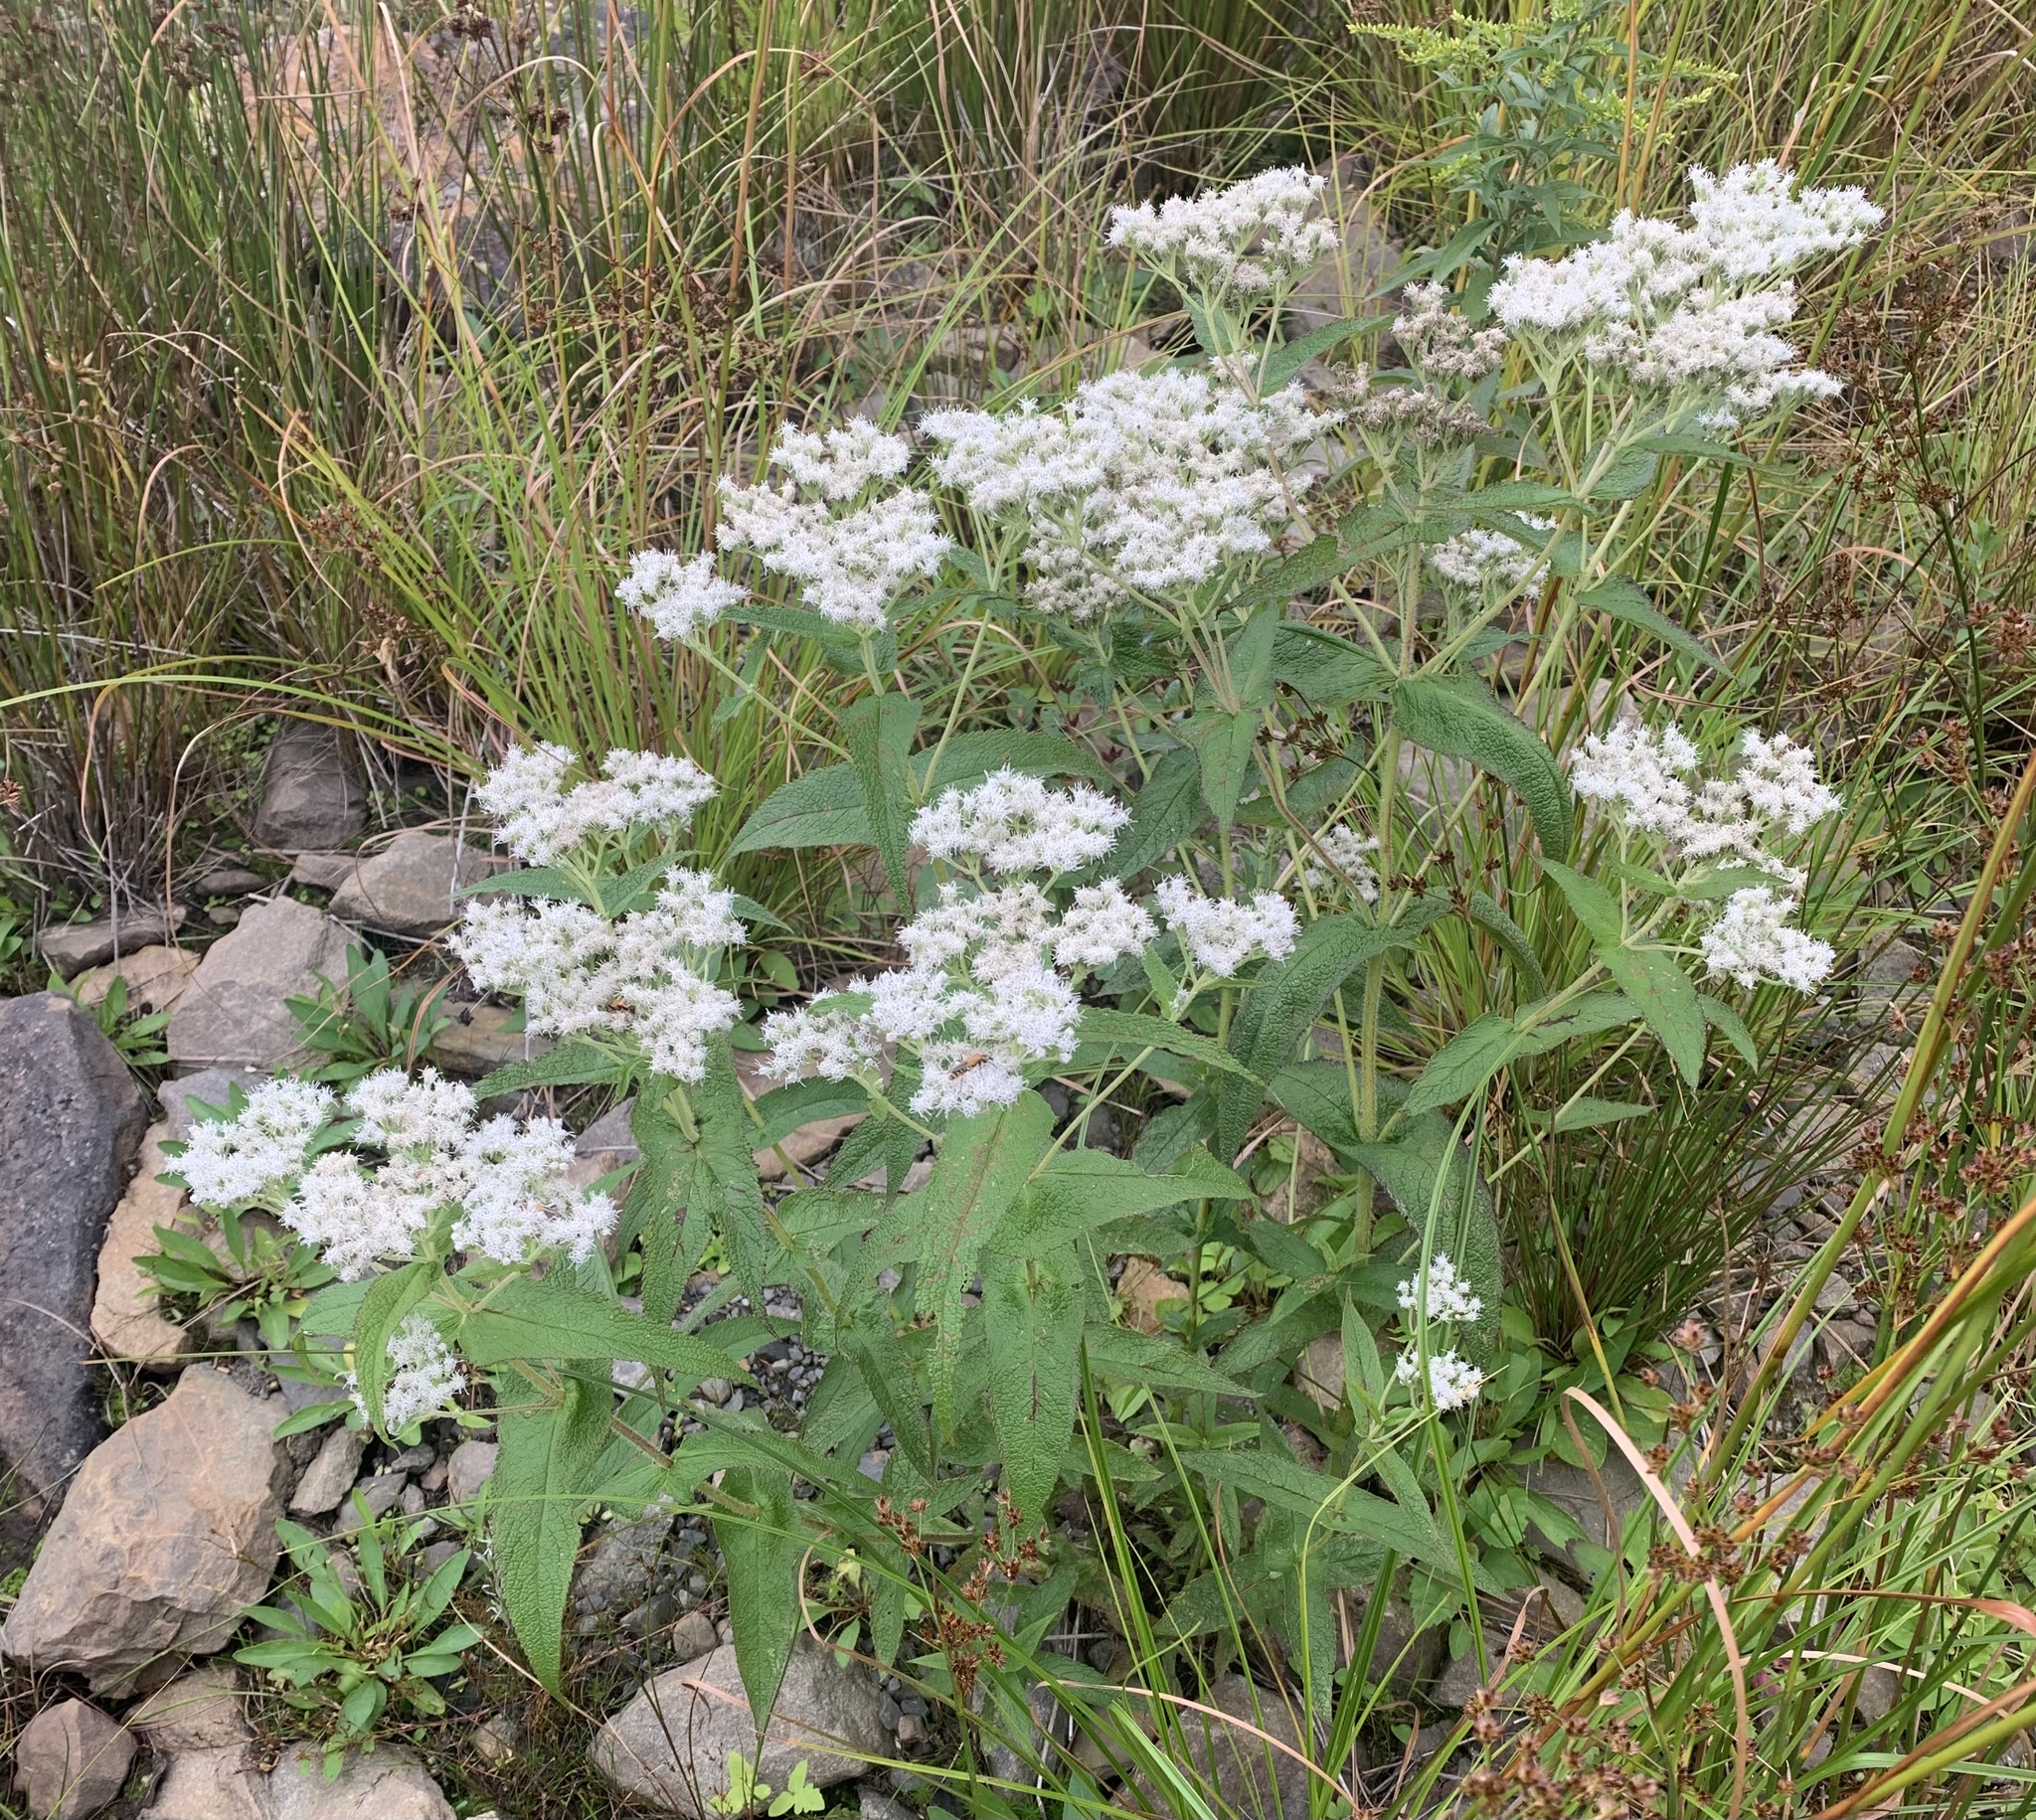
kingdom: Plantae
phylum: Tracheophyta
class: Magnoliopsida
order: Asterales
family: Asteraceae
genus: Eupatorium
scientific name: Eupatorium perfoliatum
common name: Boneset
